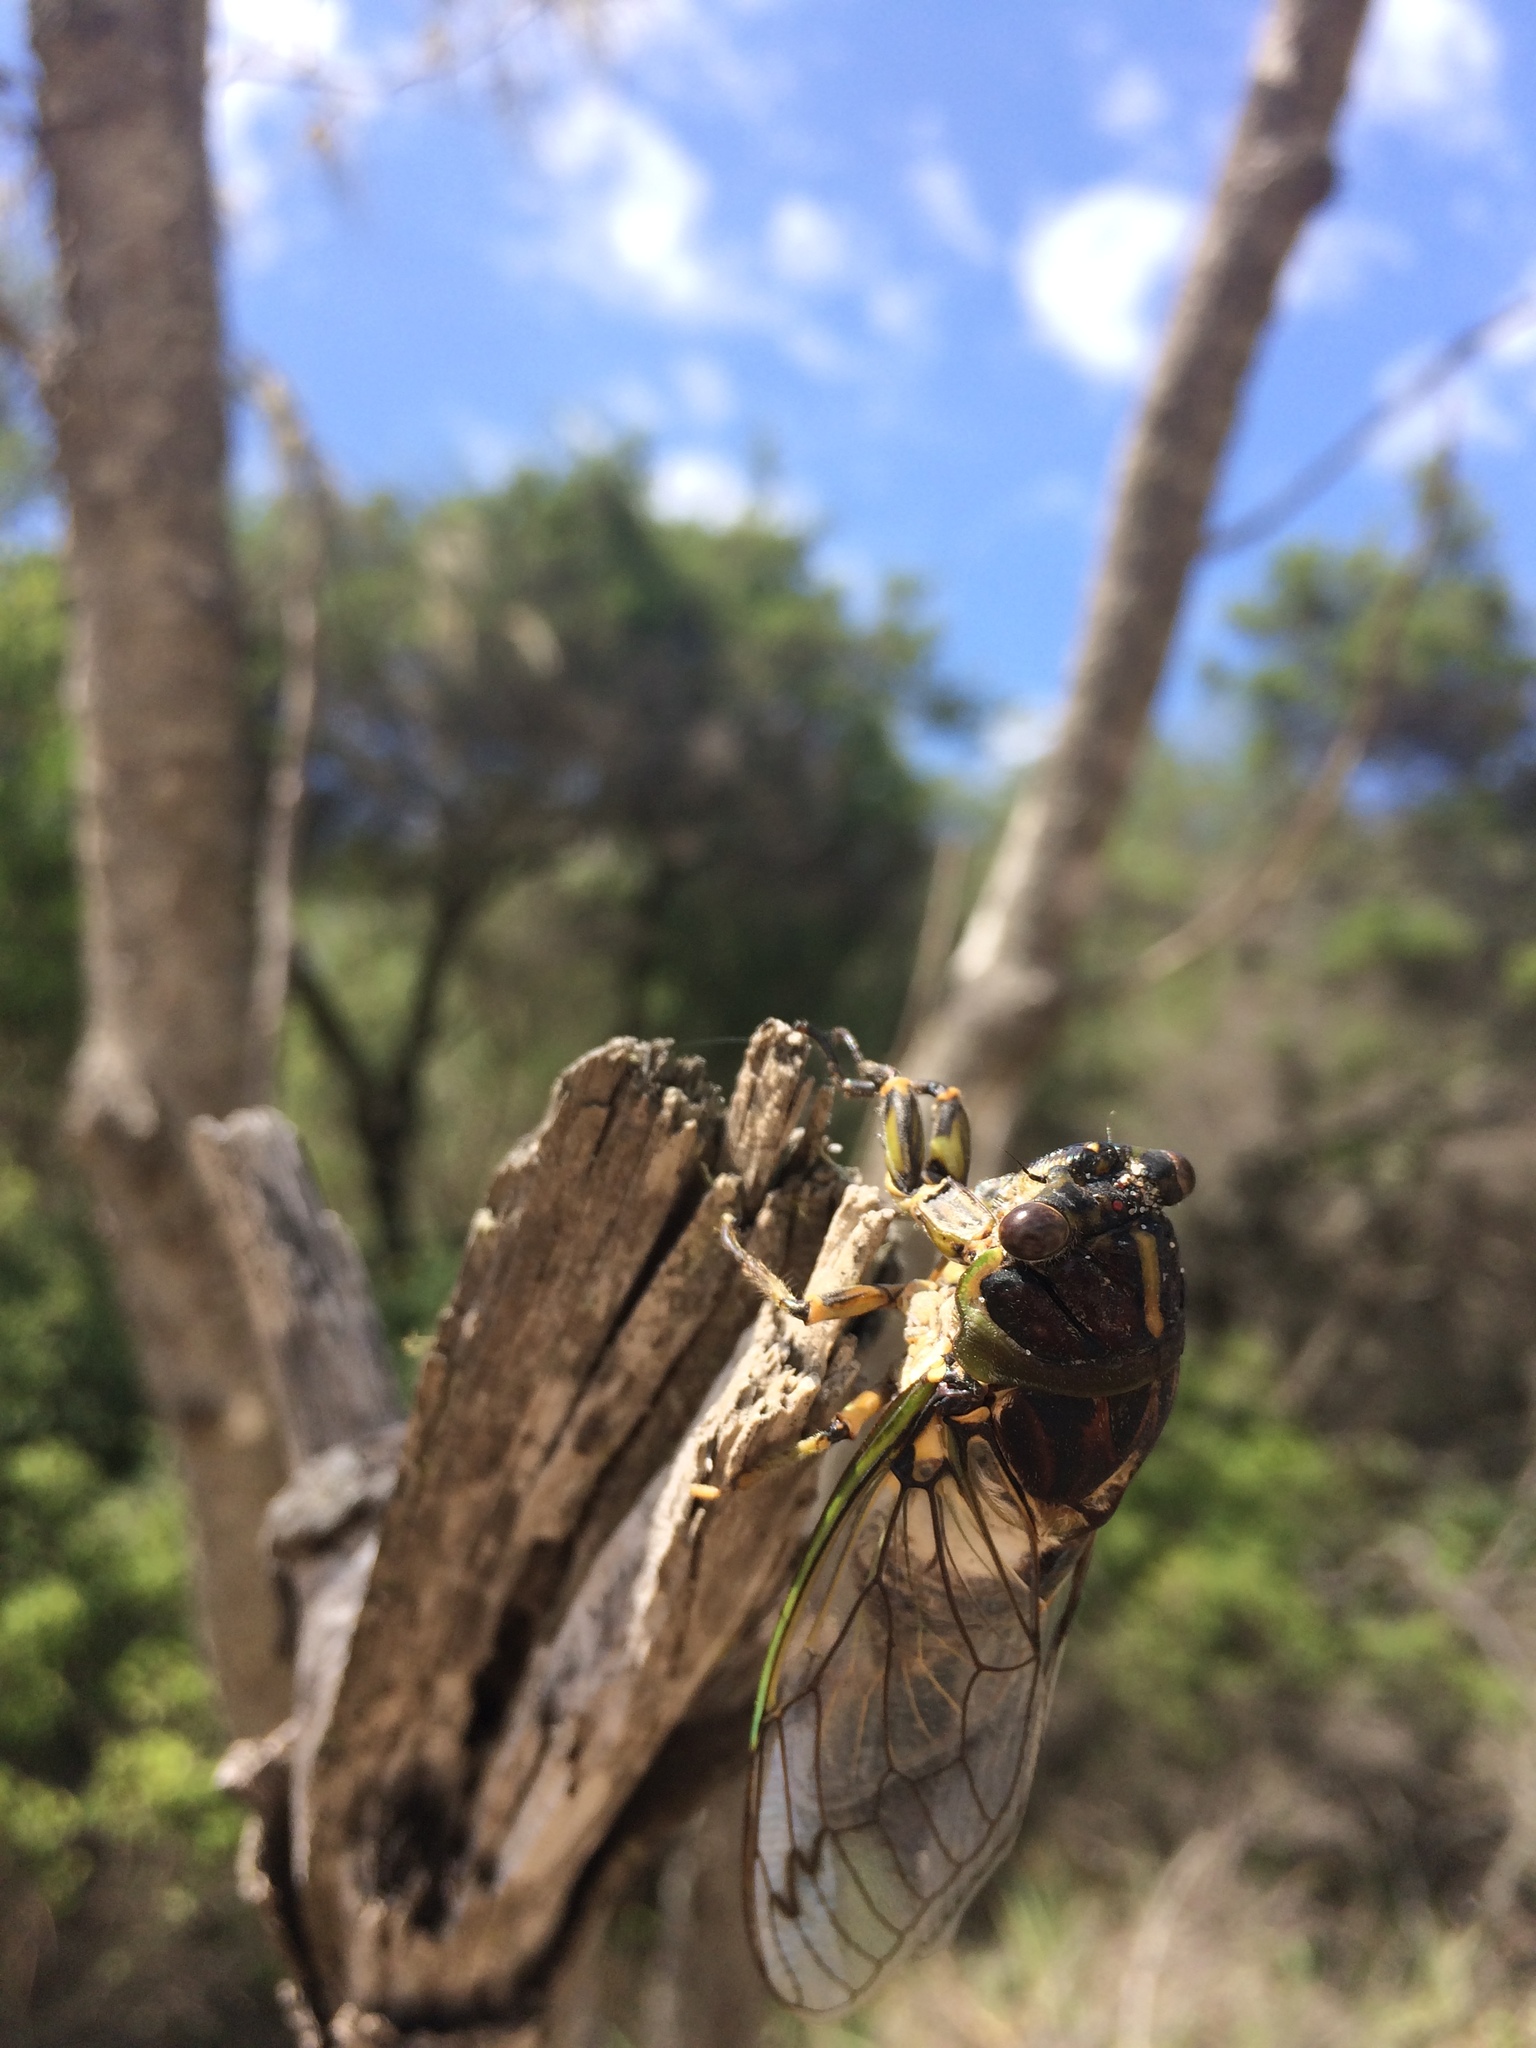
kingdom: Animalia
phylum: Arthropoda
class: Insecta
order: Hemiptera
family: Cicadidae
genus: Arunta
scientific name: Arunta perulata
